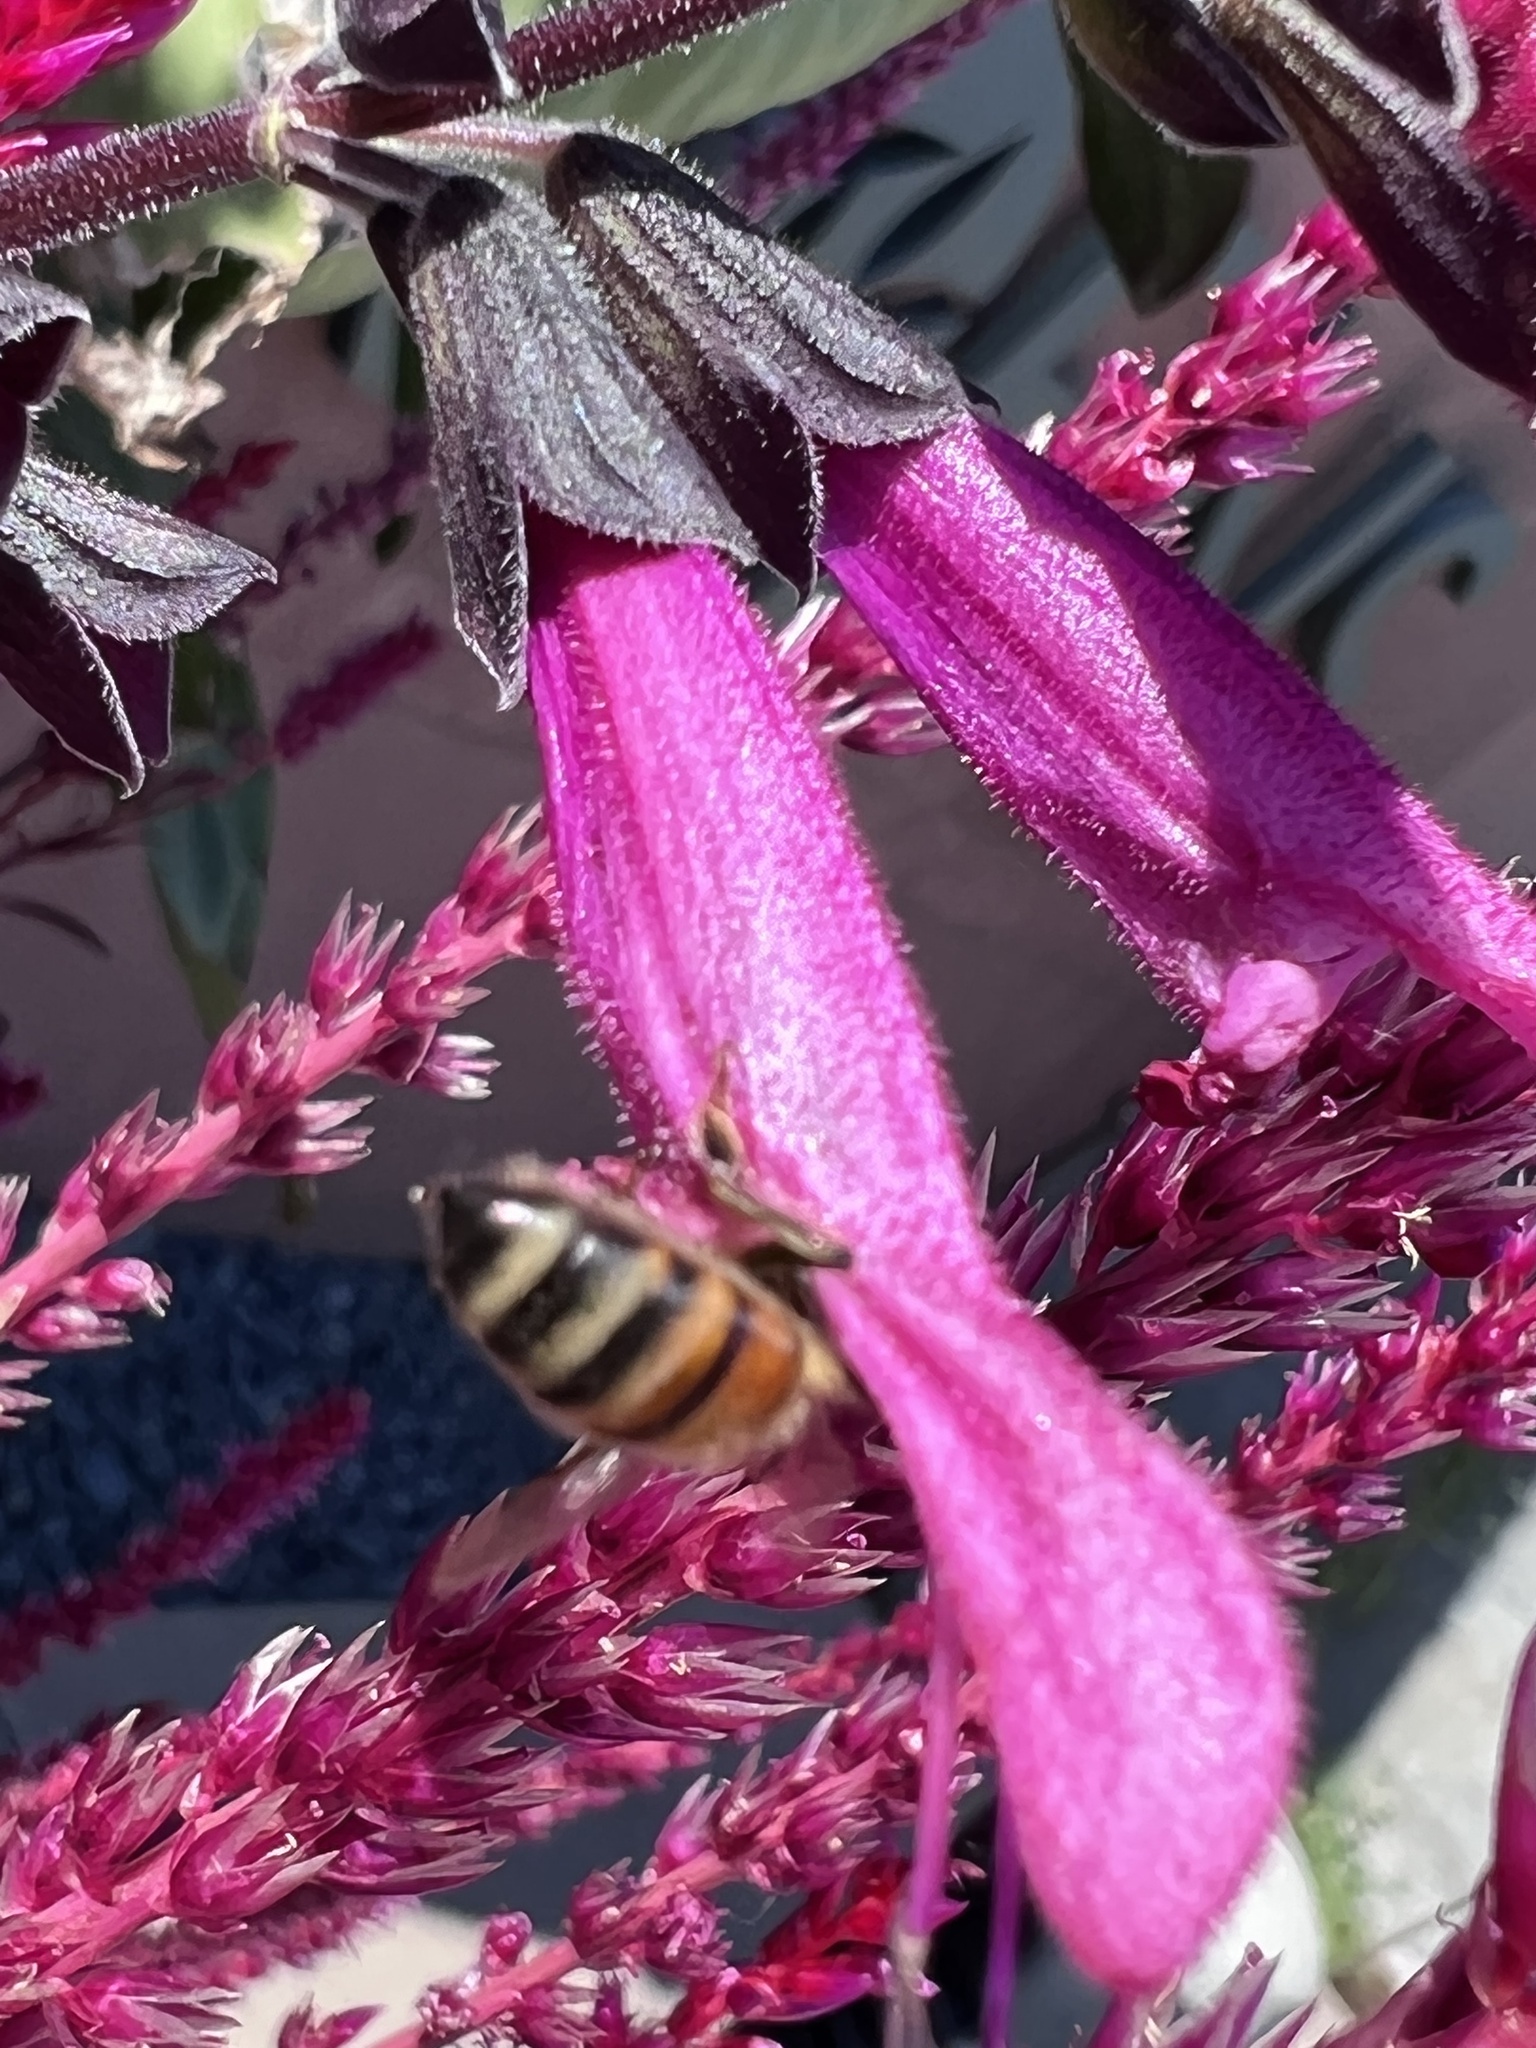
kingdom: Animalia
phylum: Arthropoda
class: Insecta
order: Hymenoptera
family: Apidae
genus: Apis
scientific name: Apis mellifera
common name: Honey bee
